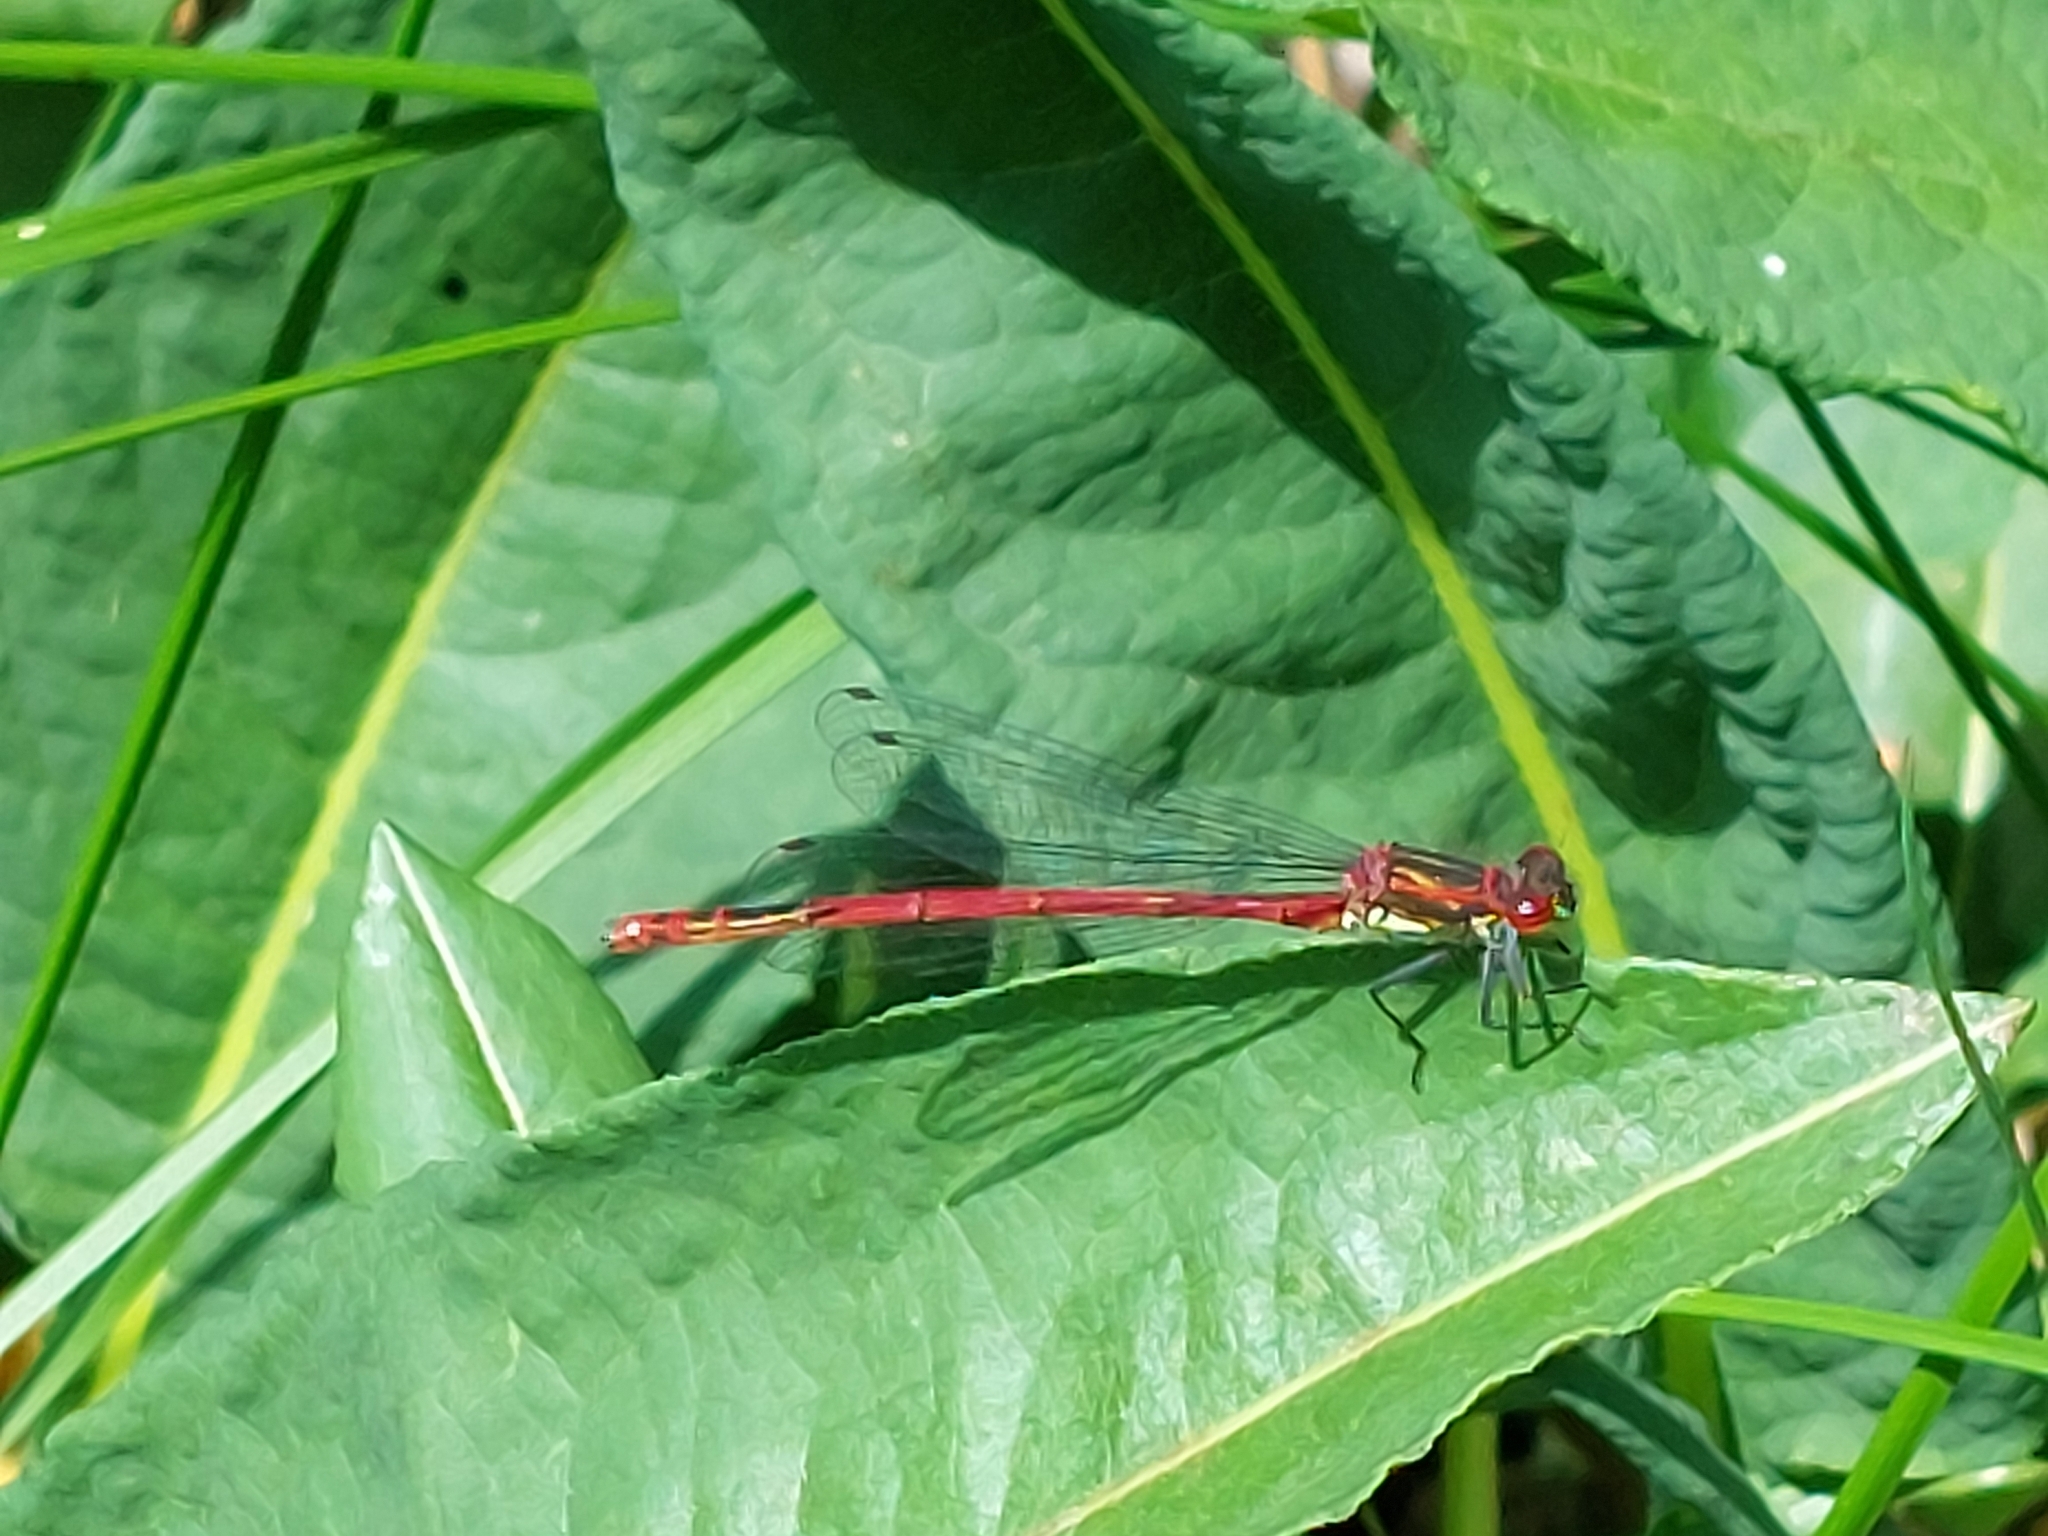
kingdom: Animalia
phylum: Arthropoda
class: Insecta
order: Odonata
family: Coenagrionidae
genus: Pyrrhosoma
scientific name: Pyrrhosoma nymphula
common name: Large red damsel
